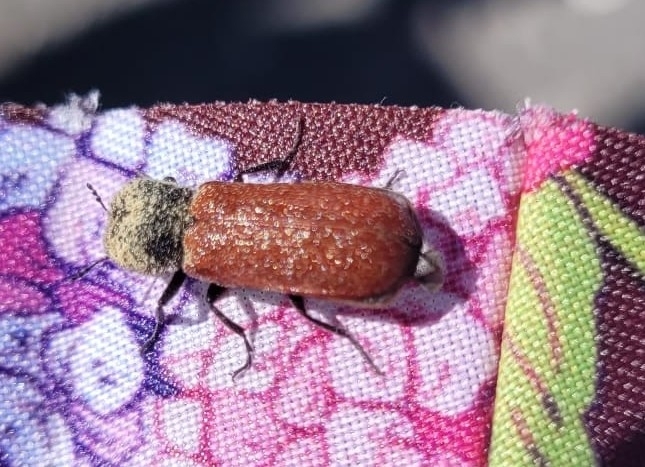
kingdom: Animalia
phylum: Arthropoda
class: Insecta
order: Coleoptera
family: Bostrichidae
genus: Bostrichus
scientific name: Bostrichus capucinus
